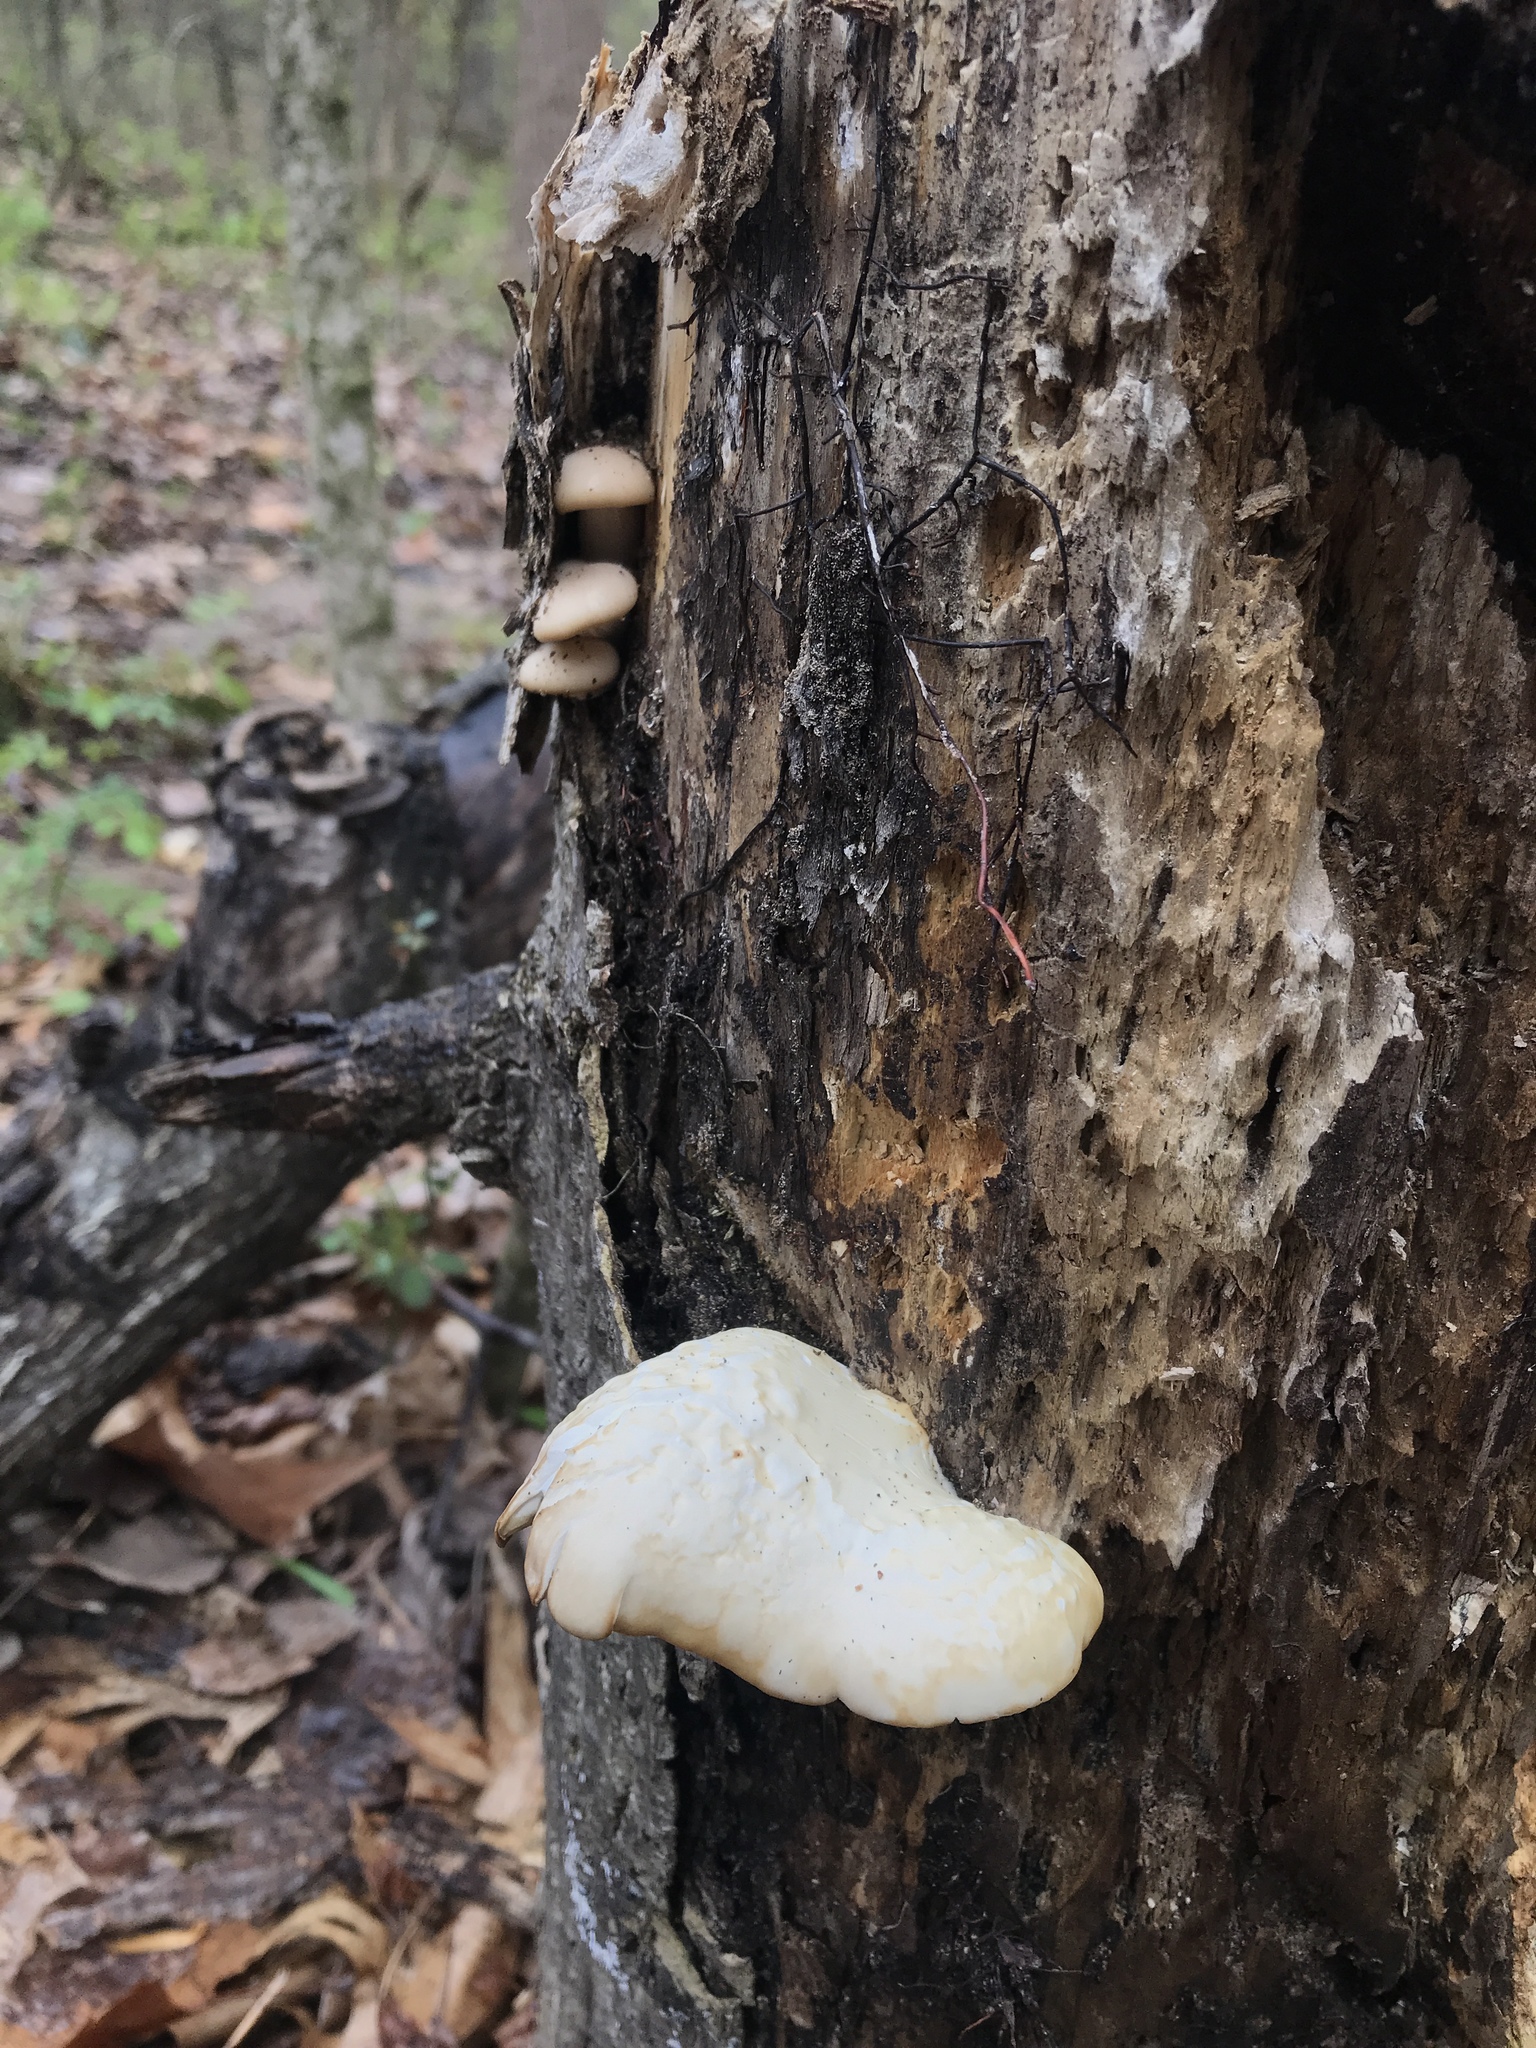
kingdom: Fungi
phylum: Basidiomycota
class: Agaricomycetes
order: Agaricales
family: Pleurotaceae
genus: Pleurotus
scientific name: Pleurotus populinus
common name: Aspen oyster mushroom
